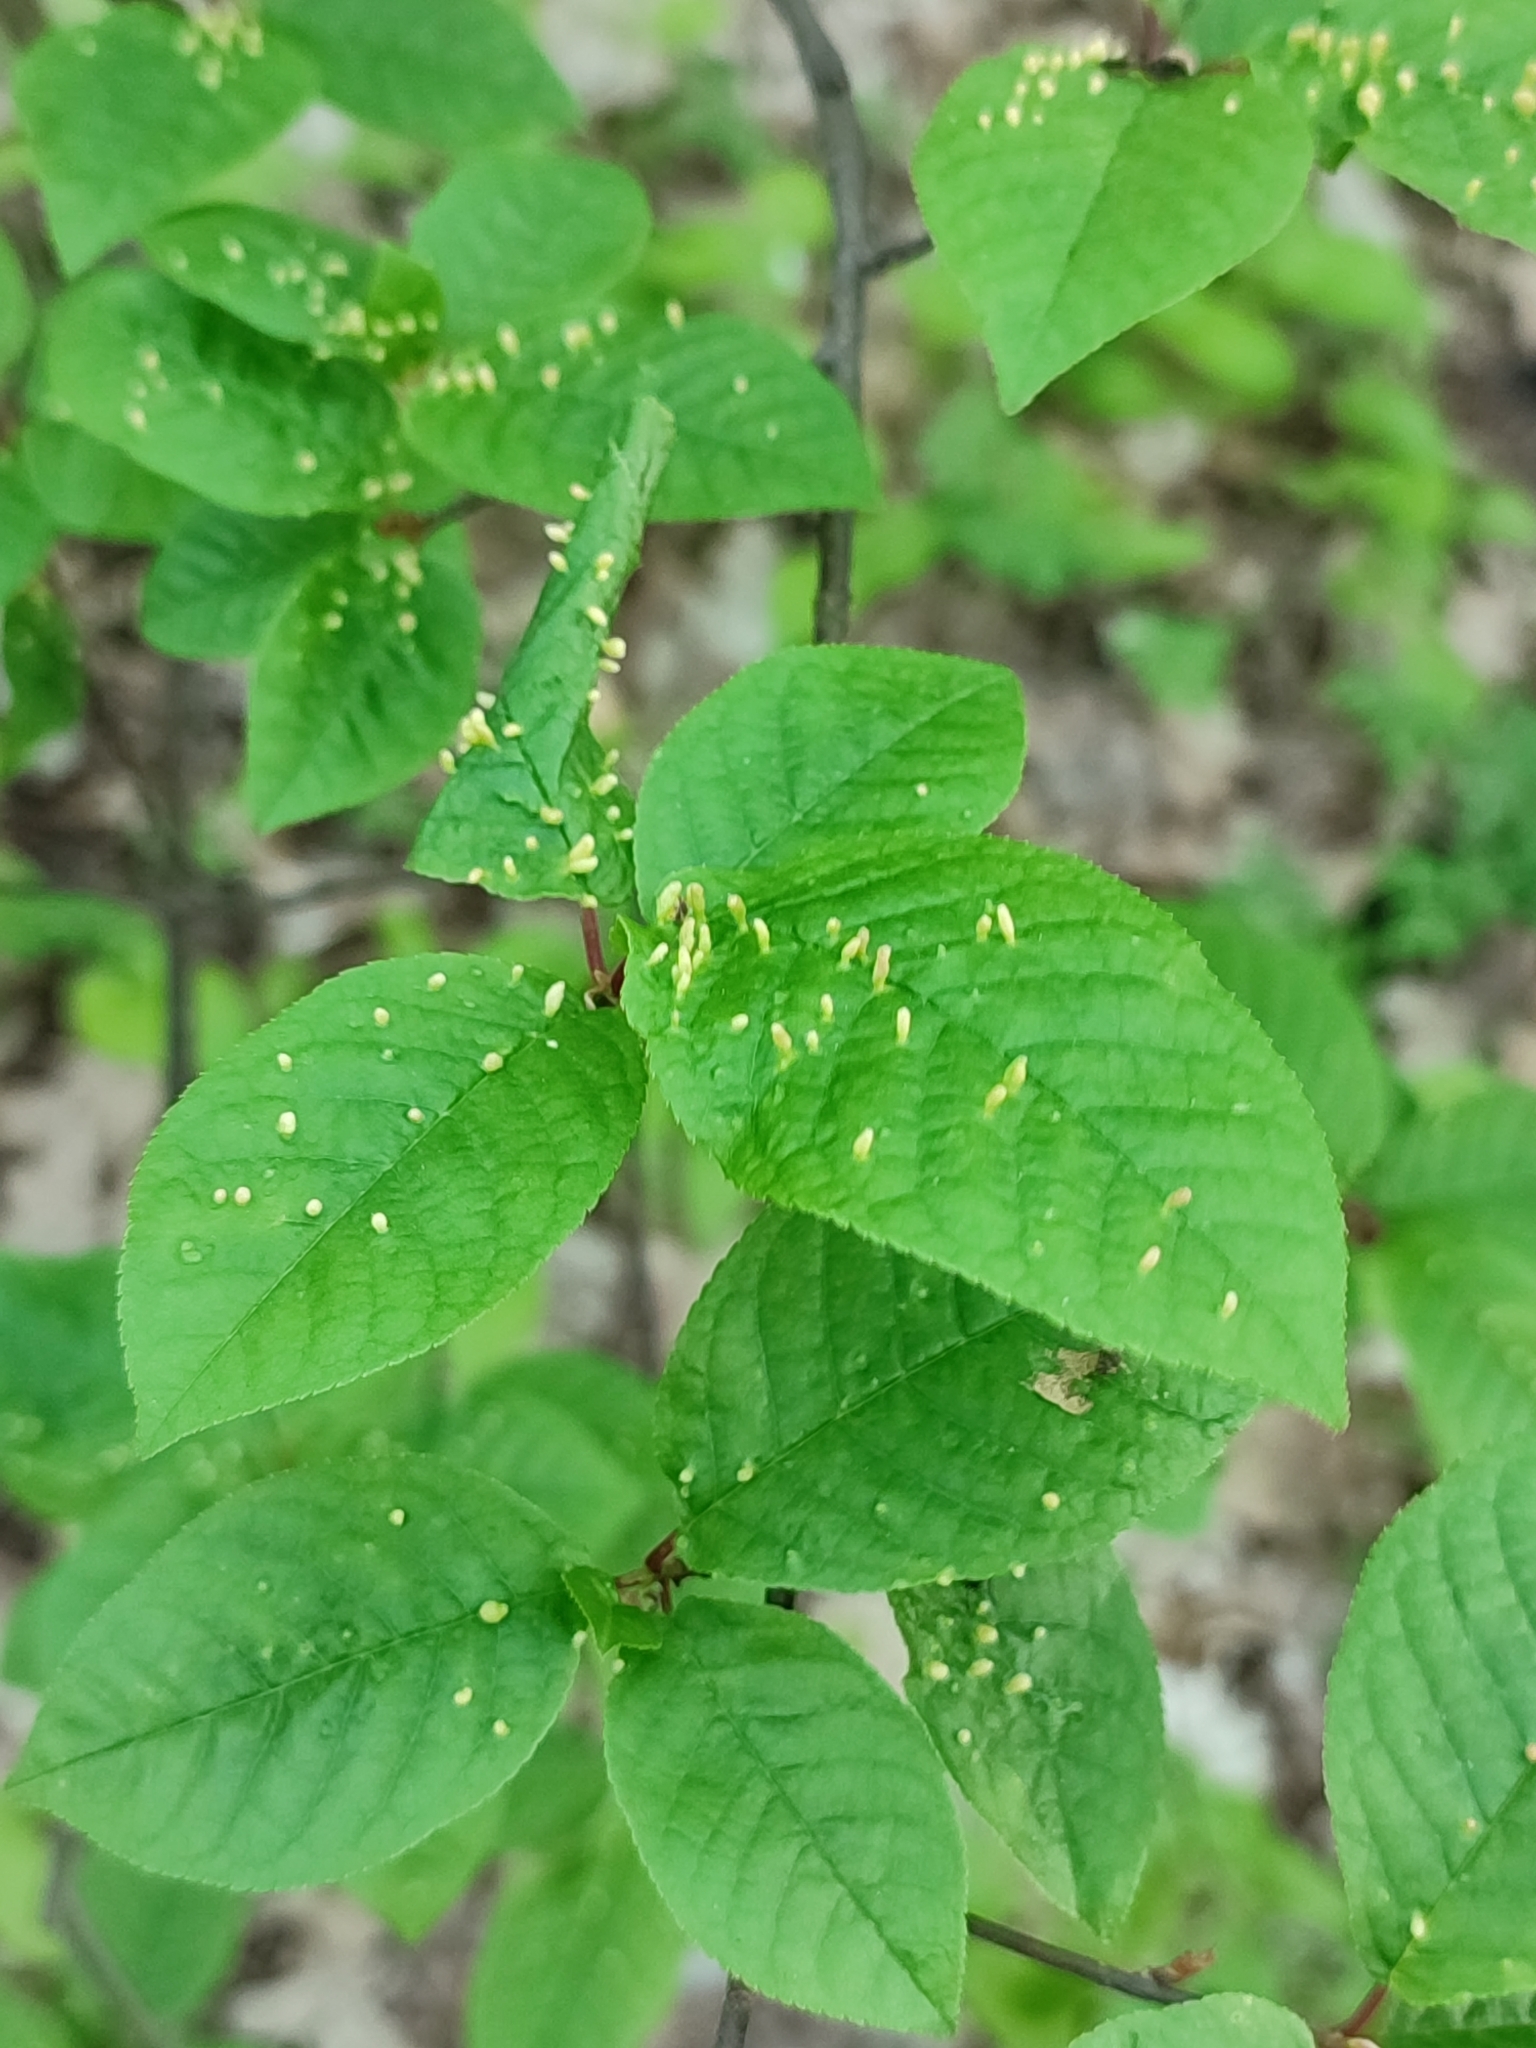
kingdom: Plantae
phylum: Tracheophyta
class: Magnoliopsida
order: Rosales
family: Rosaceae
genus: Prunus
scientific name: Prunus padus
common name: Bird cherry
